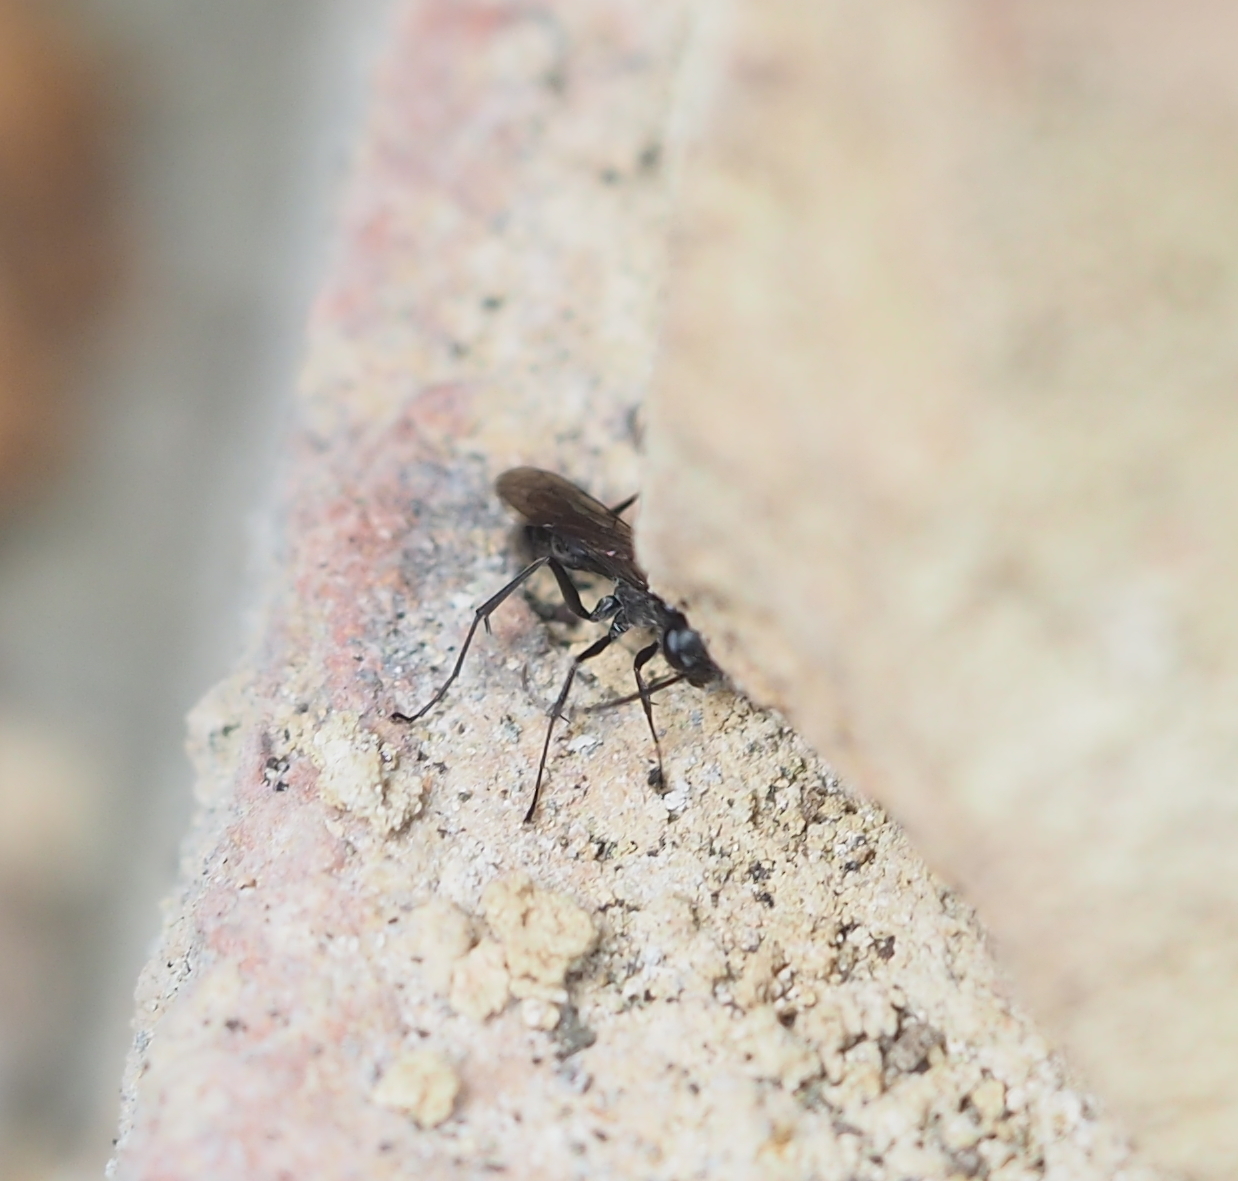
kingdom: Animalia
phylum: Arthropoda
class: Insecta
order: Hymenoptera
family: Pompilidae
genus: Auplopus
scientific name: Auplopus carbonarius
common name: Spider wasp
